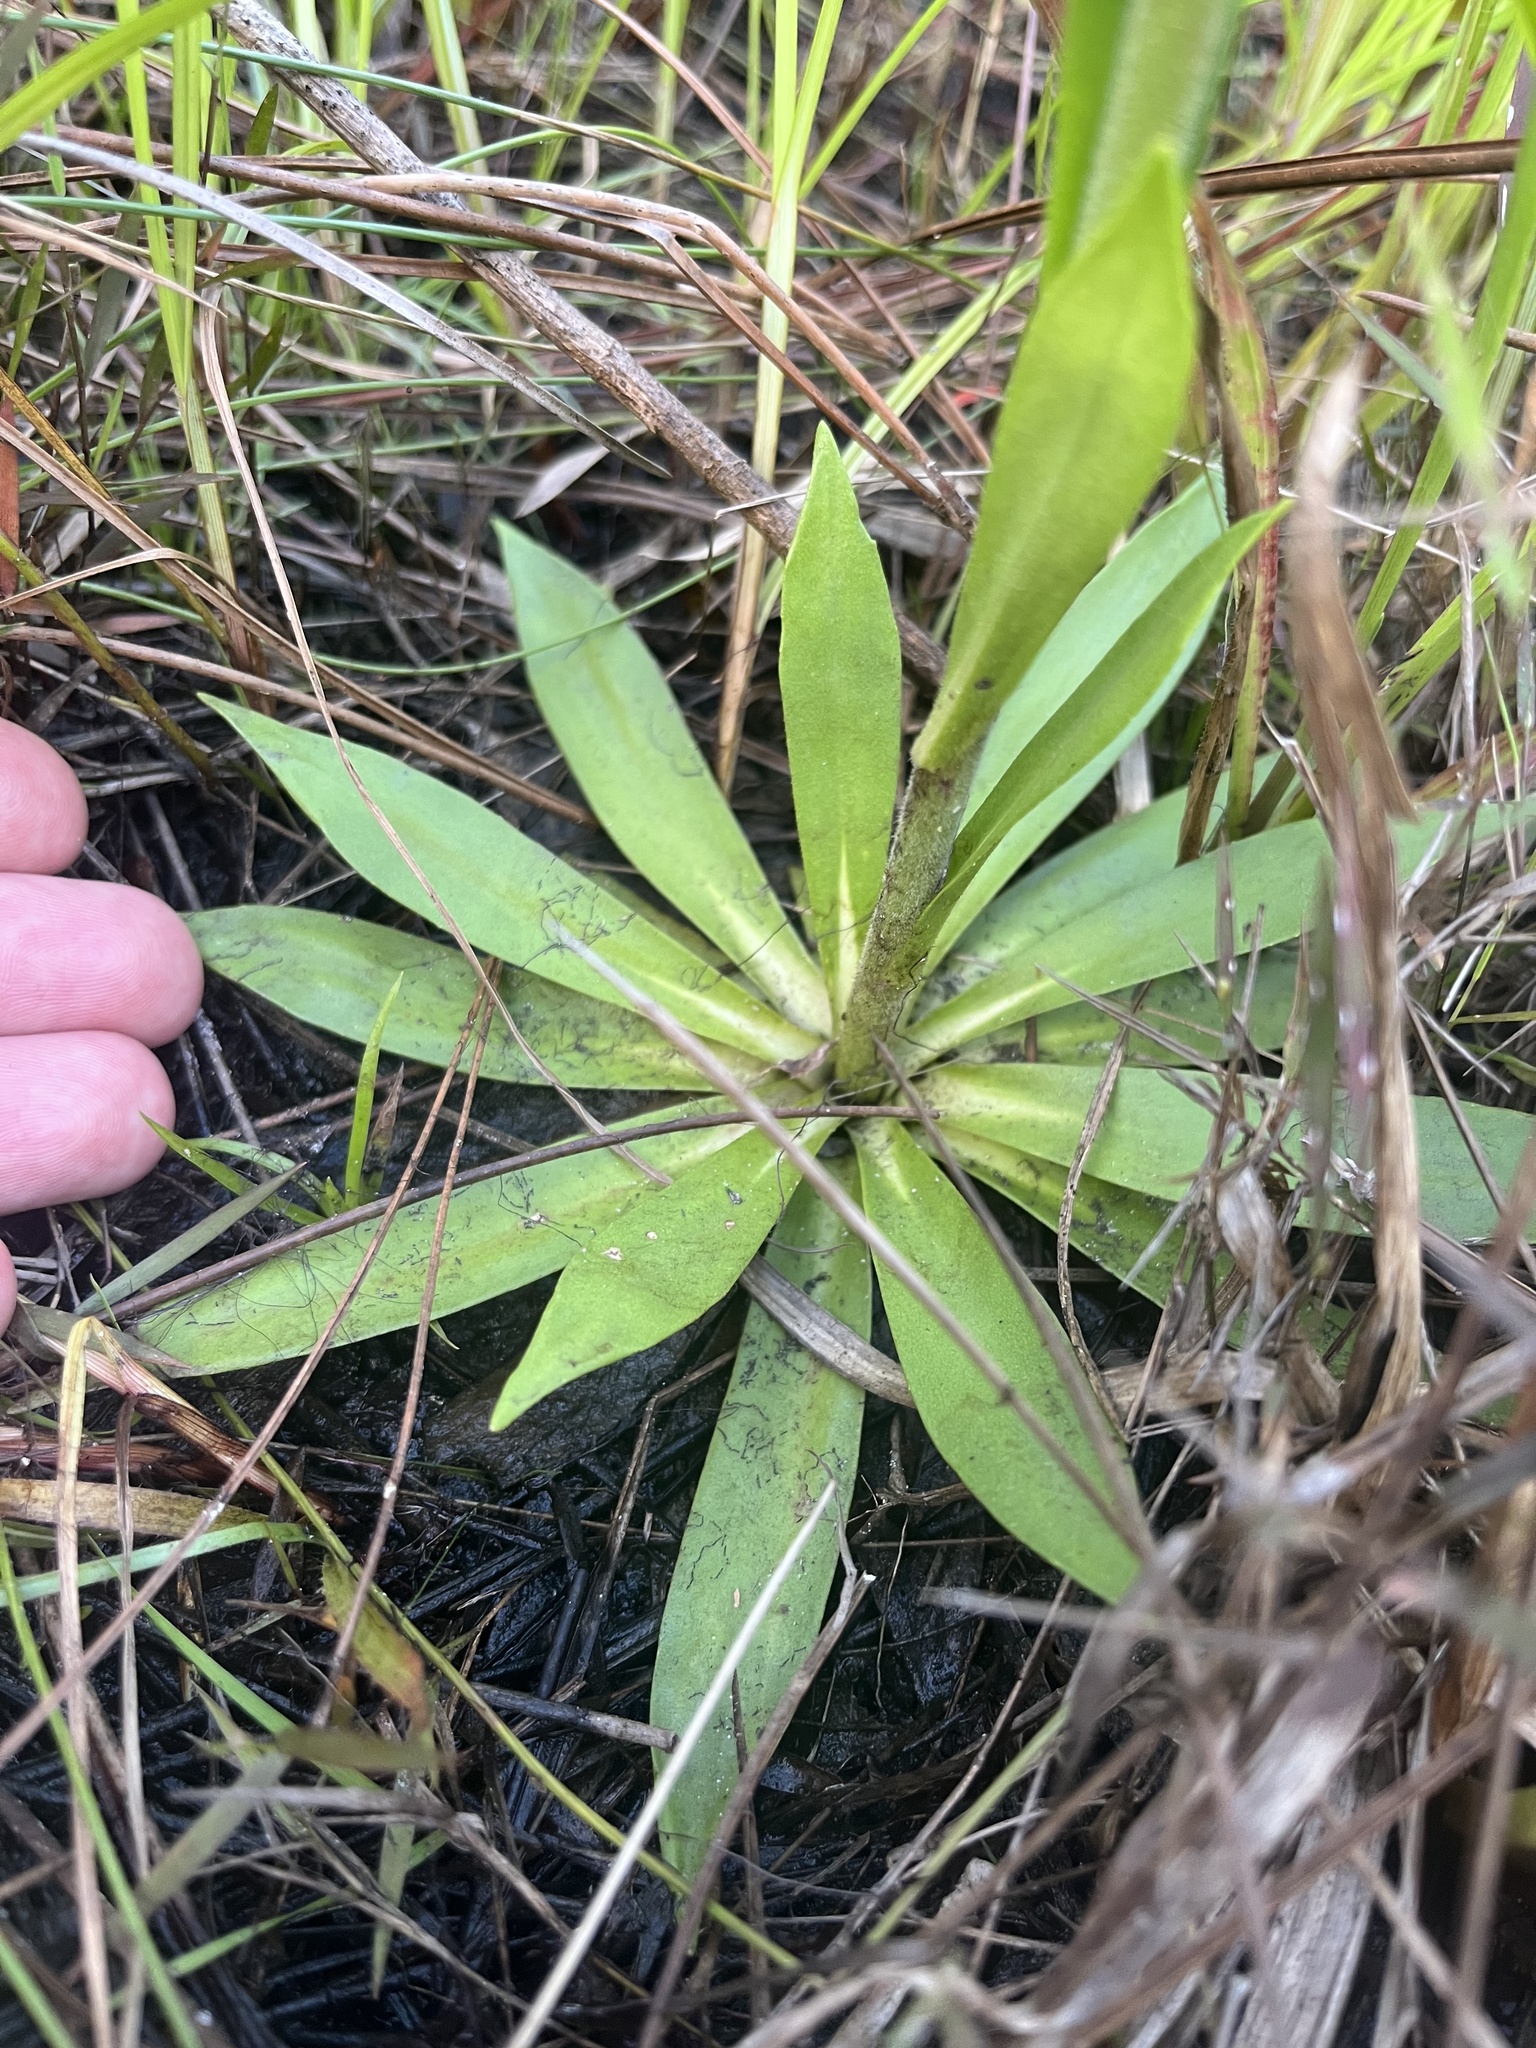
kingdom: Plantae
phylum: Tracheophyta
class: Magnoliopsida
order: Asterales
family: Asteraceae
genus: Carphephorus
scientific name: Carphephorus carnosus
